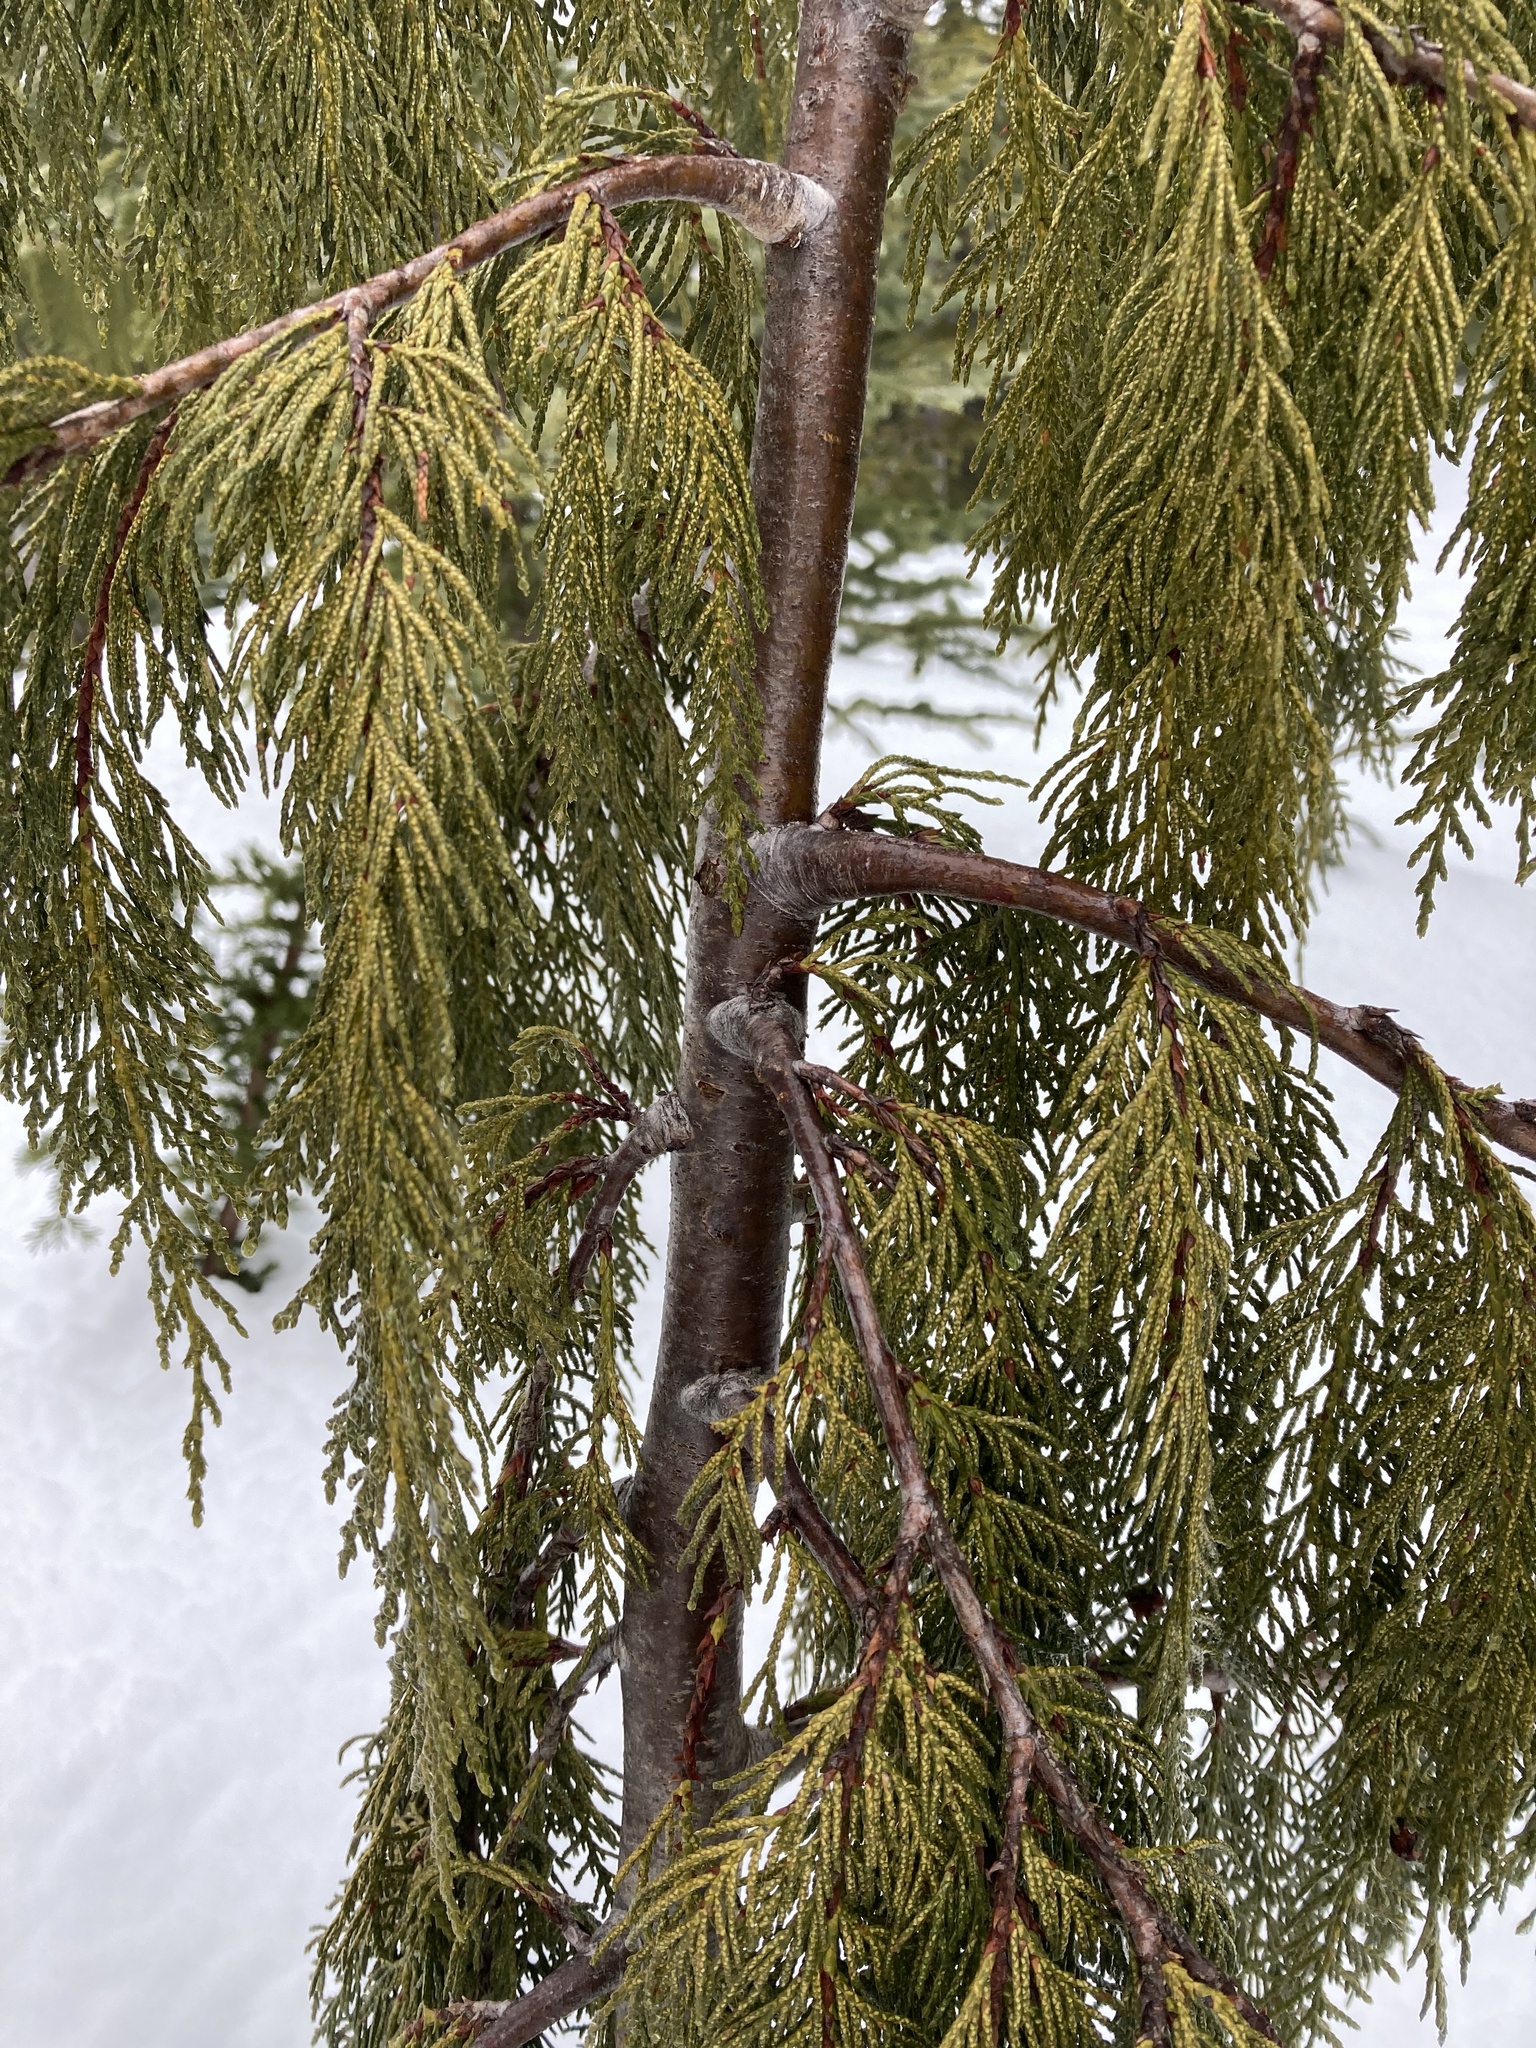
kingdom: Plantae
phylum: Tracheophyta
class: Pinopsida
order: Pinales
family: Cupressaceae
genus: Xanthocyparis
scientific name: Xanthocyparis nootkatensis
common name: Nootka cypress
